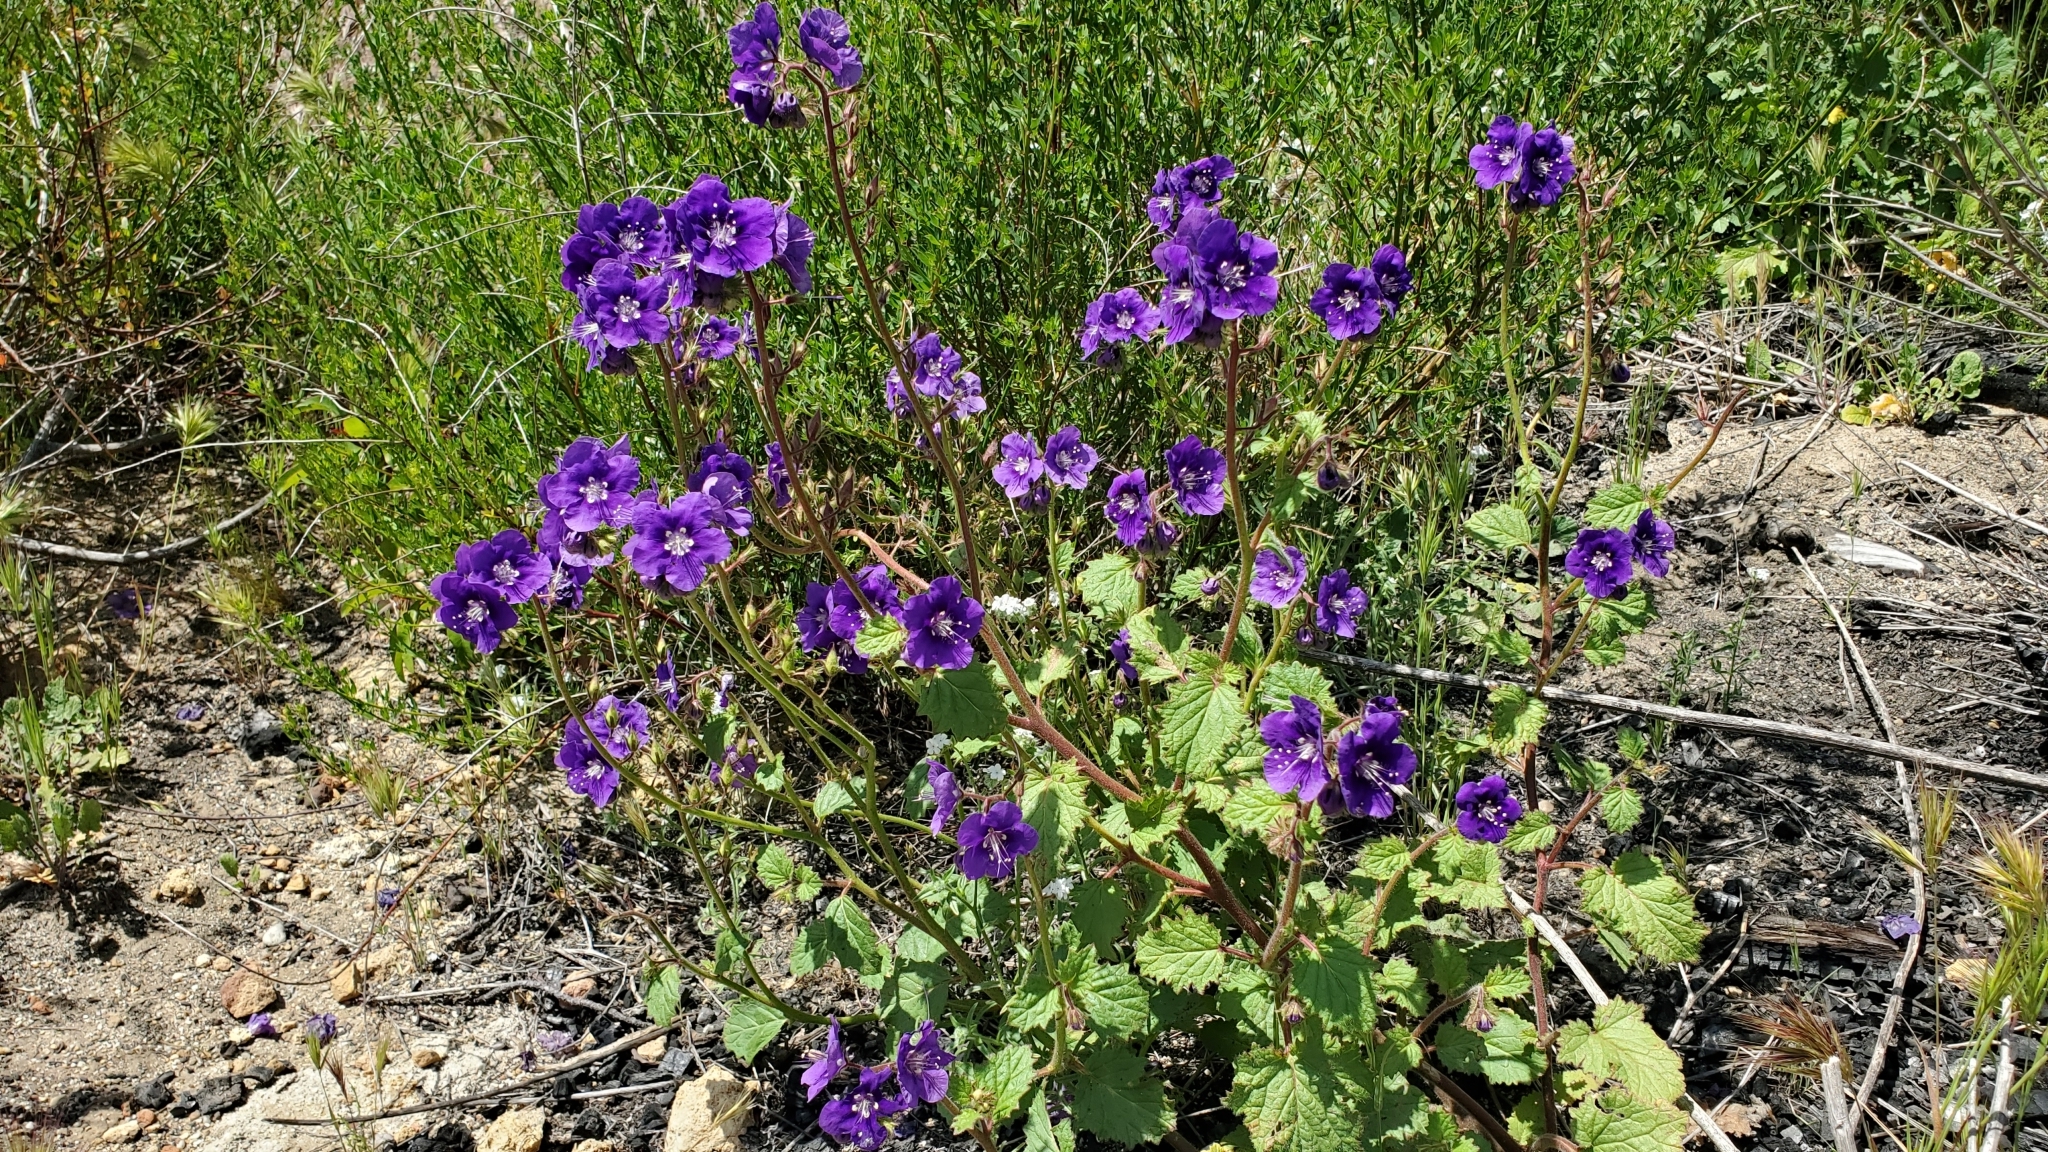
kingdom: Plantae
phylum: Tracheophyta
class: Magnoliopsida
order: Boraginales
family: Hydrophyllaceae
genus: Phacelia
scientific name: Phacelia parryi
